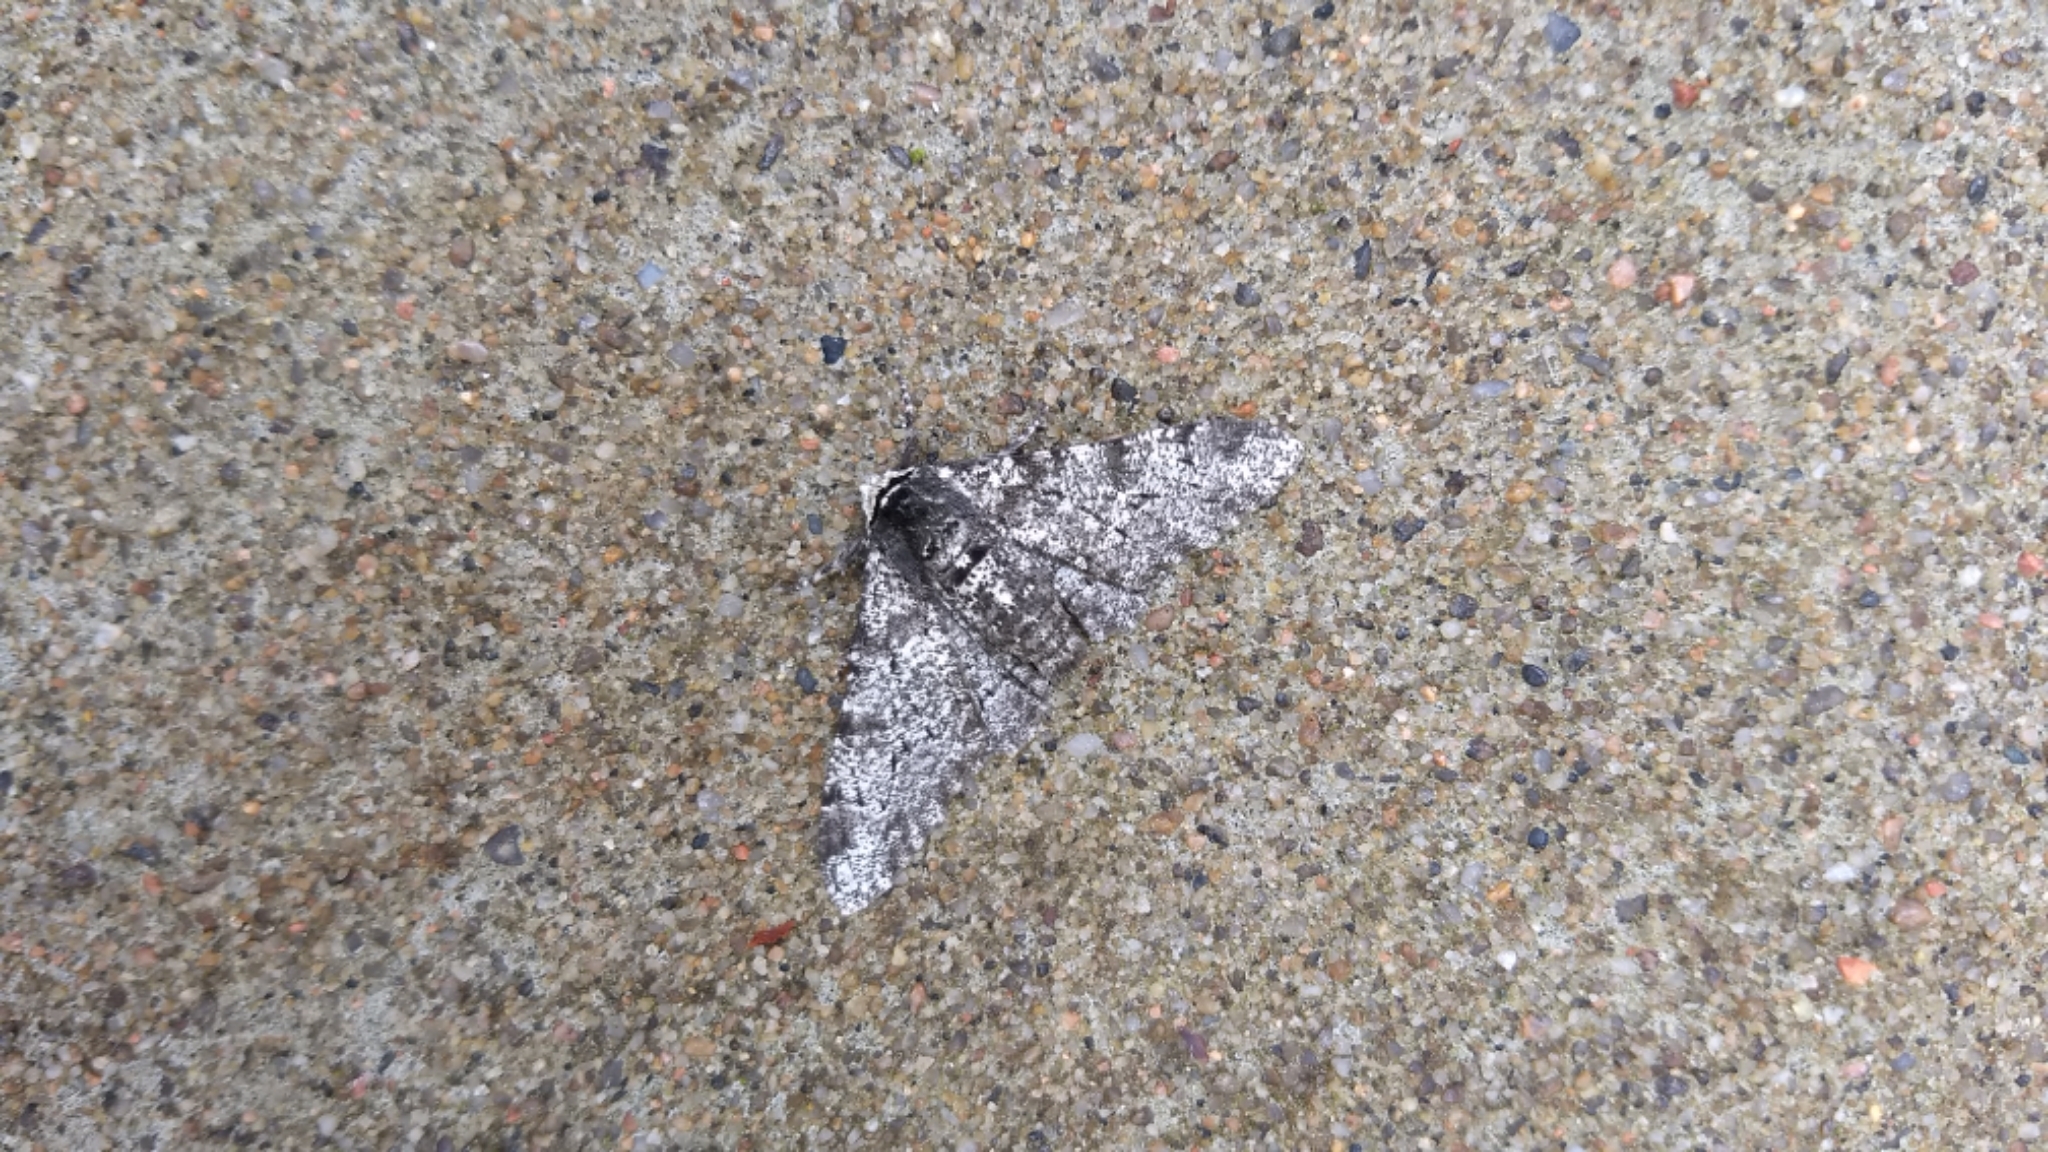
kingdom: Animalia
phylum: Arthropoda
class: Insecta
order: Lepidoptera
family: Geometridae
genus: Biston
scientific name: Biston betularia
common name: Peppered moth
